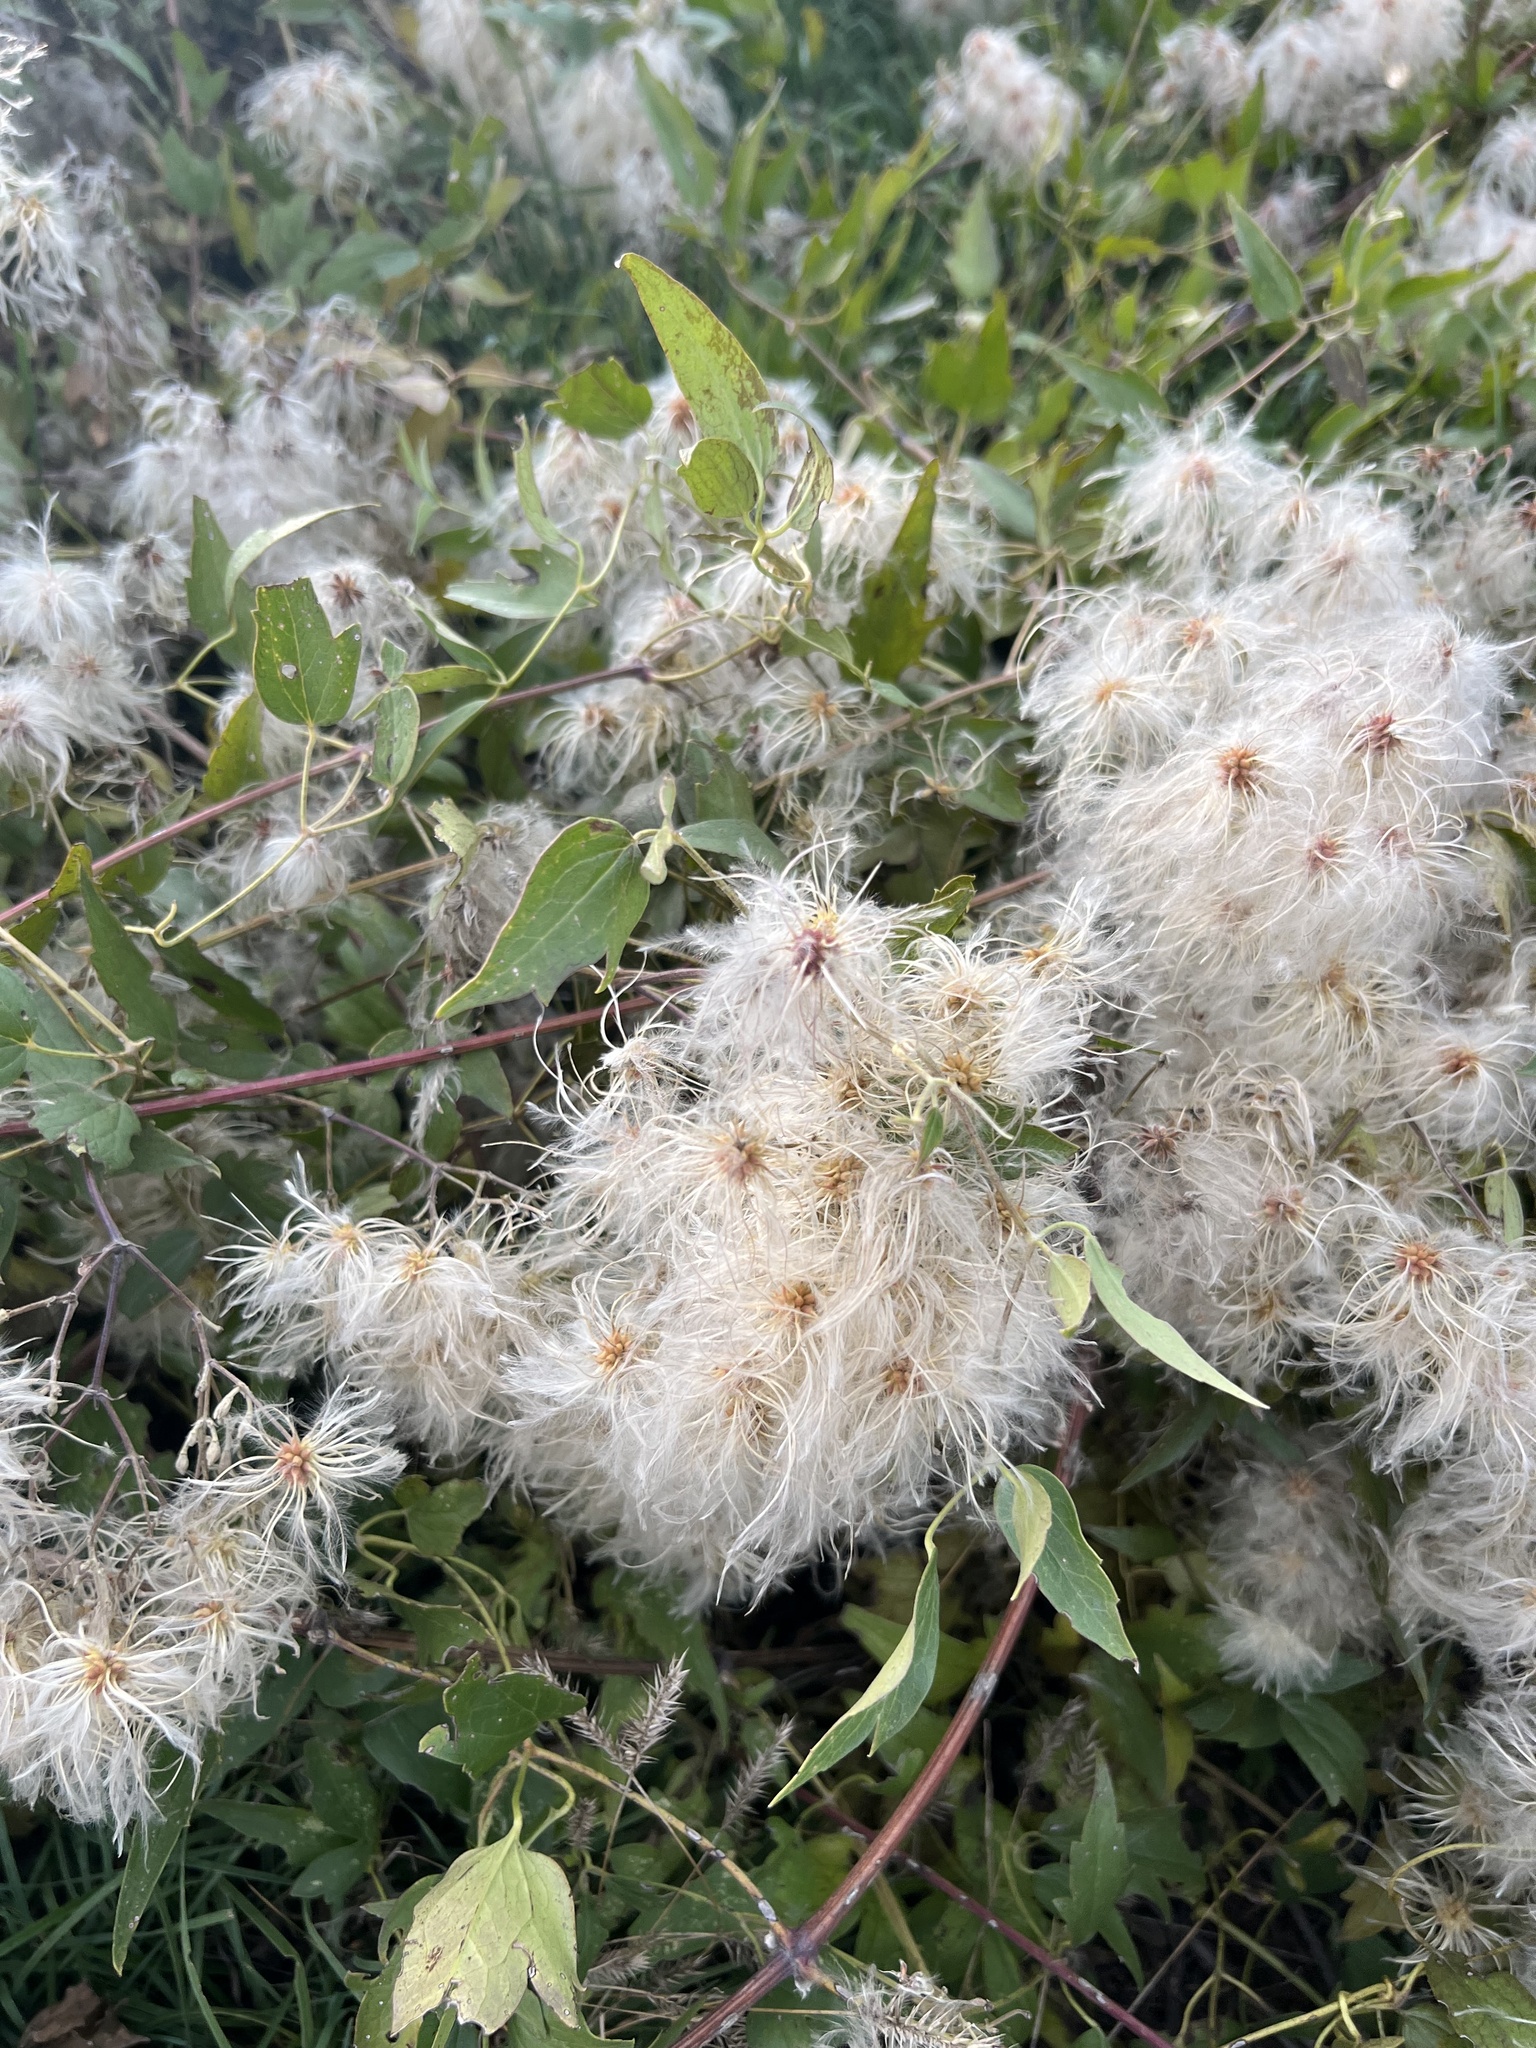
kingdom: Plantae
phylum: Tracheophyta
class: Magnoliopsida
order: Ranunculales
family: Ranunculaceae
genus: Clematis
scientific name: Clematis ligusticifolia
